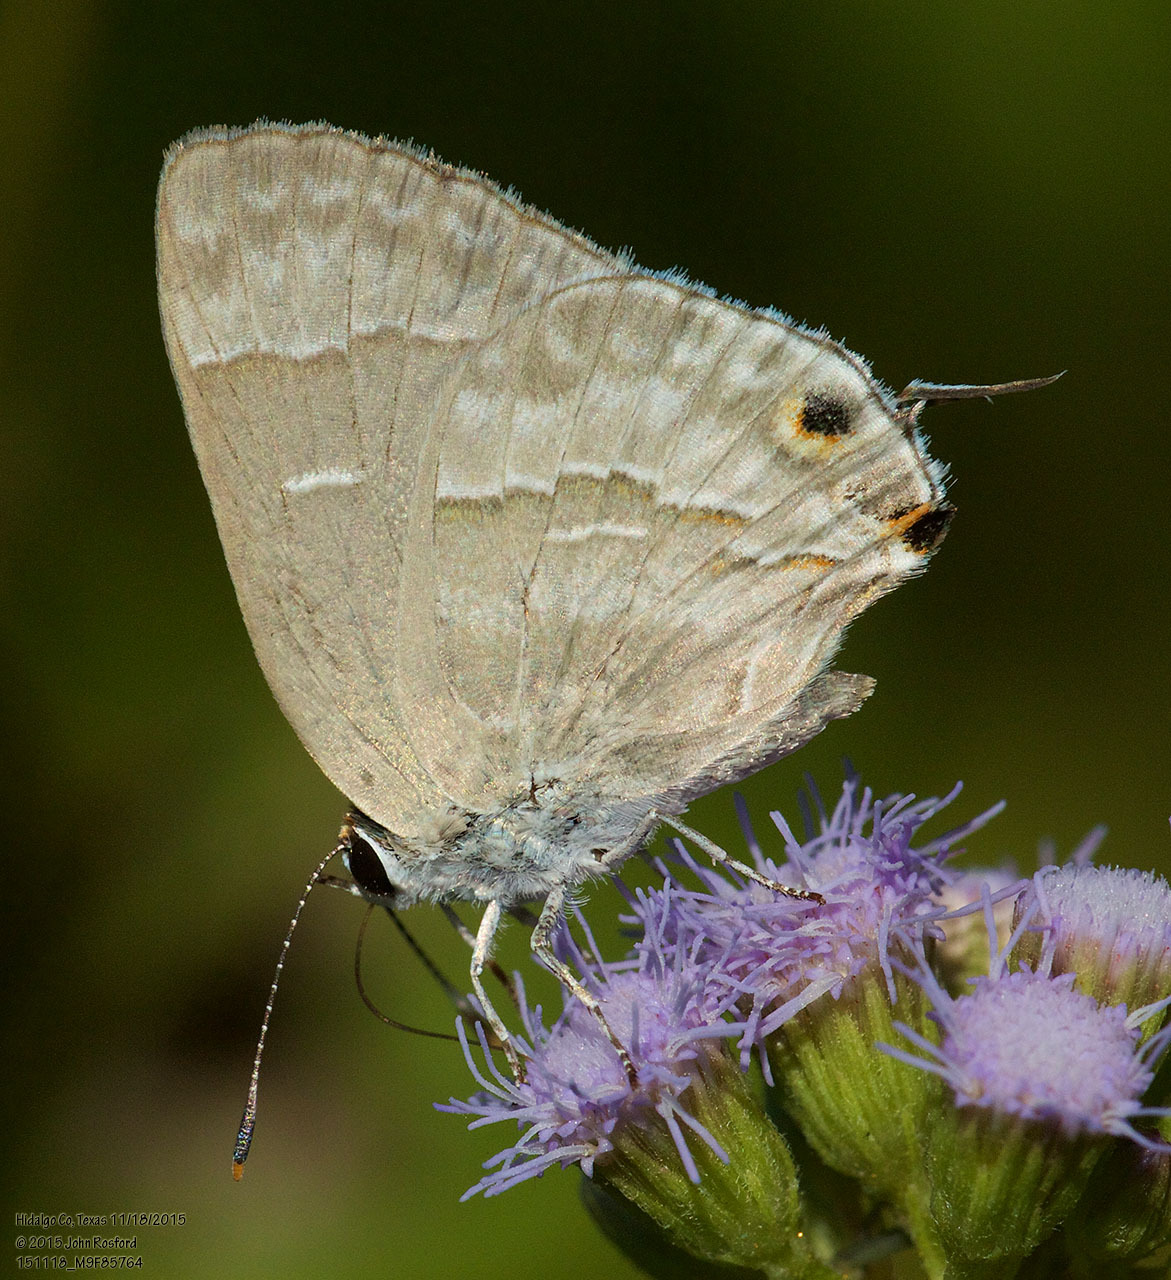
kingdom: Animalia
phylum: Arthropoda
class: Insecta
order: Lepidoptera
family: Lycaenidae
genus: Thecla
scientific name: Thecla yojoa
